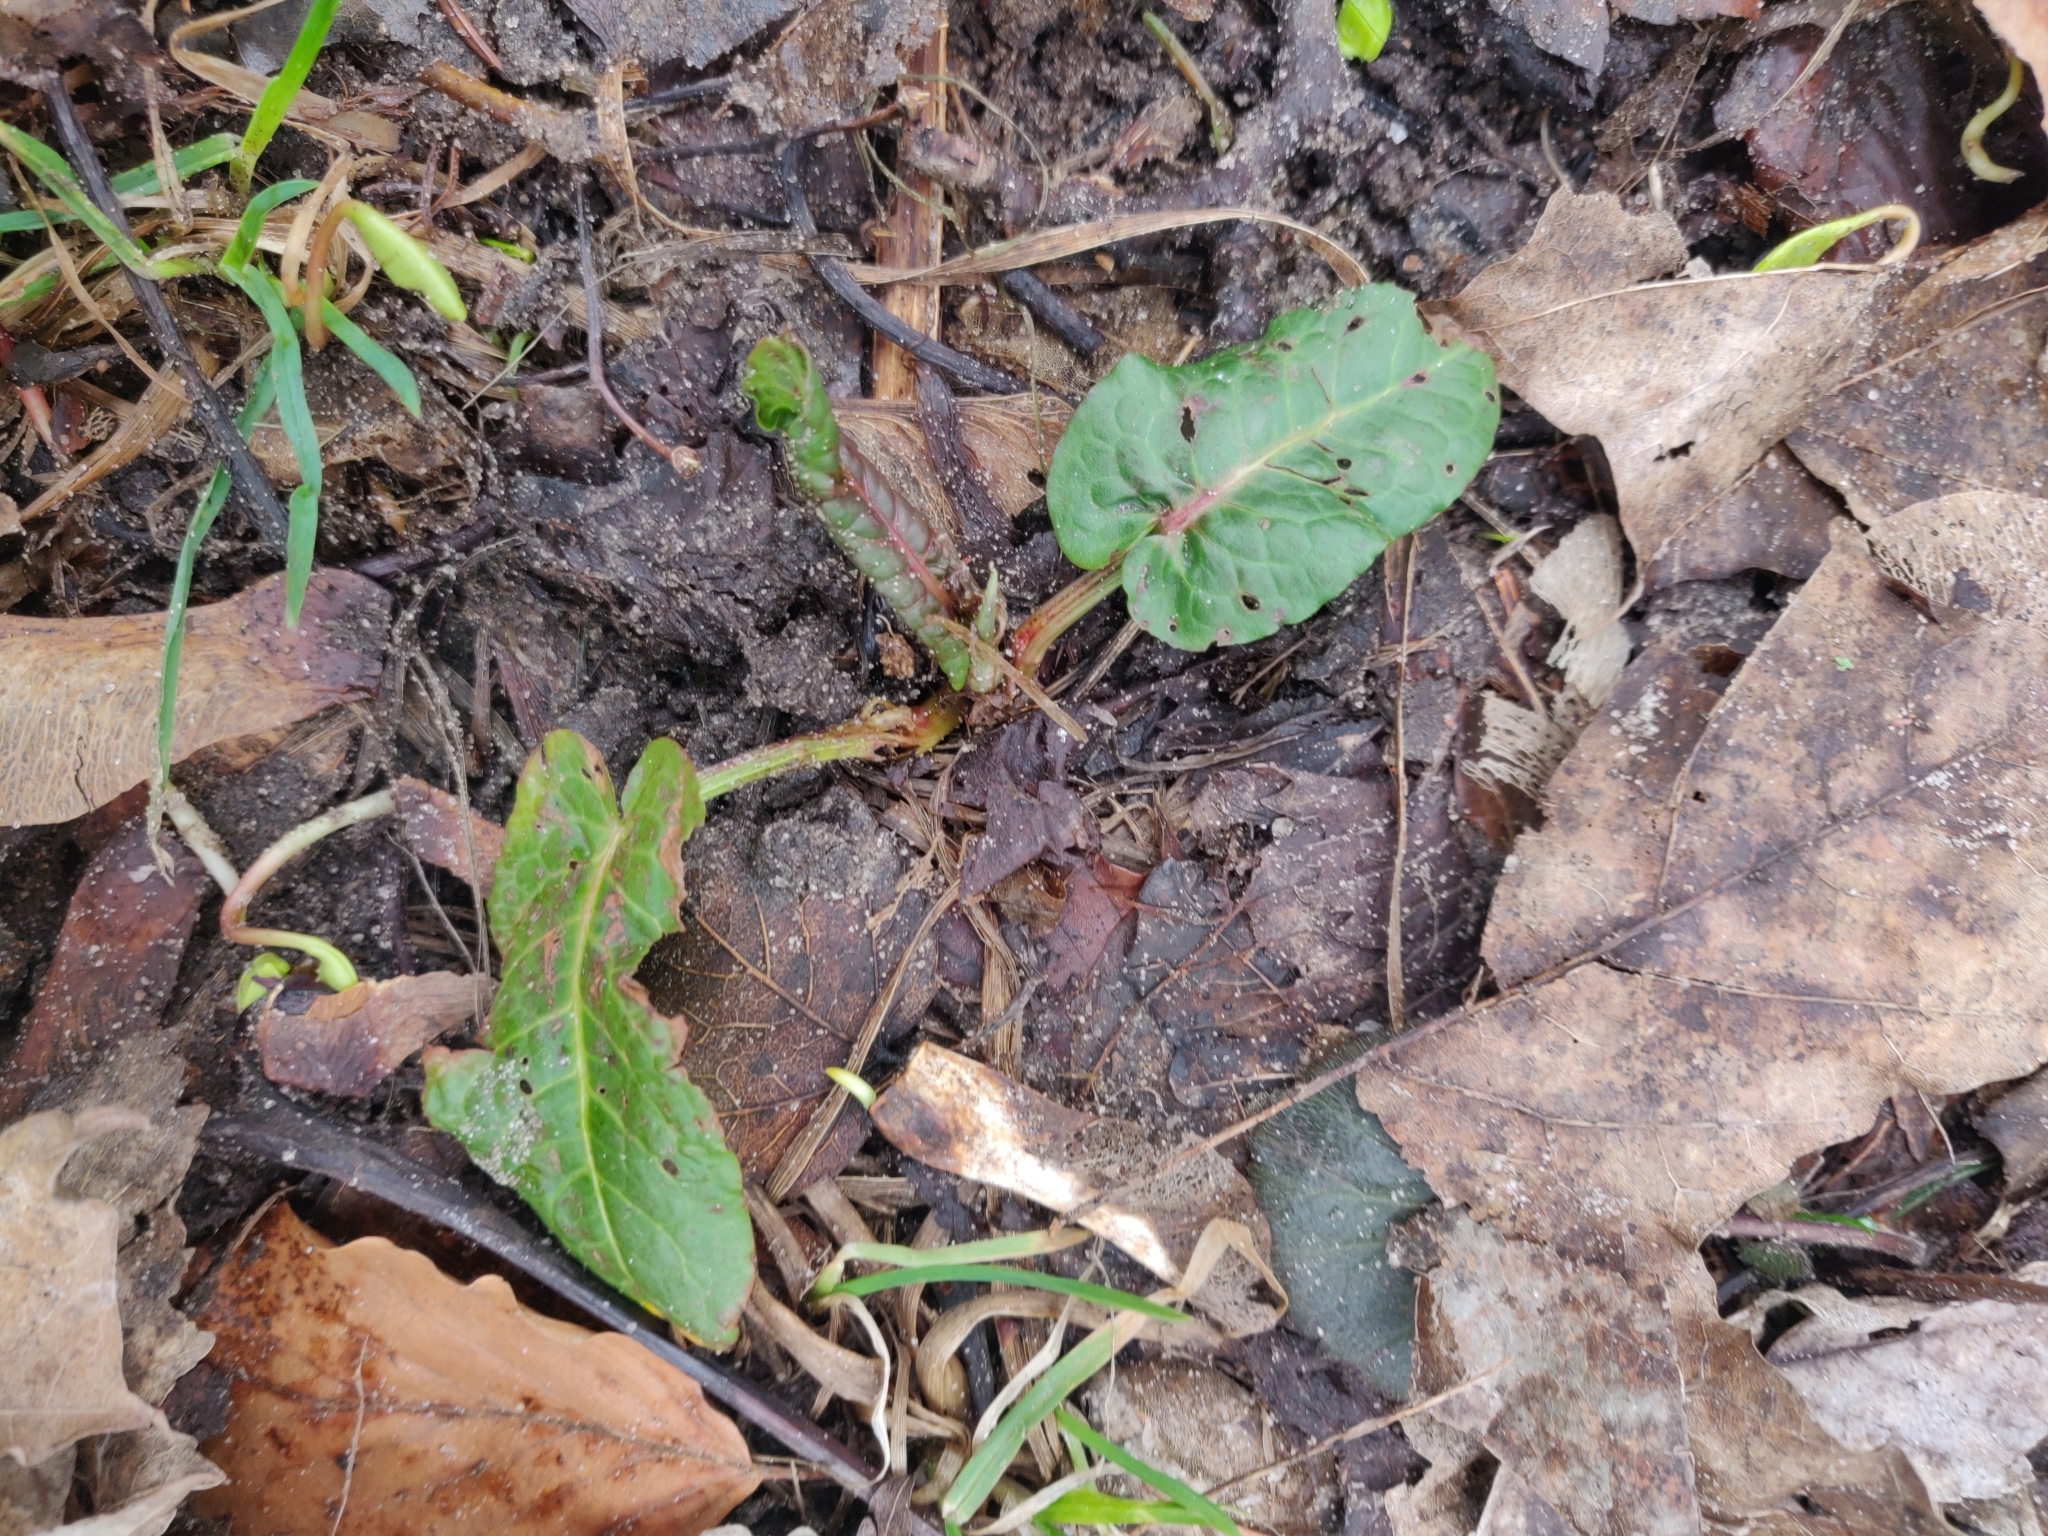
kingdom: Plantae
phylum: Tracheophyta
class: Magnoliopsida
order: Caryophyllales
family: Polygonaceae
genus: Rumex
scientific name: Rumex obtusifolius
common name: Bitter dock
